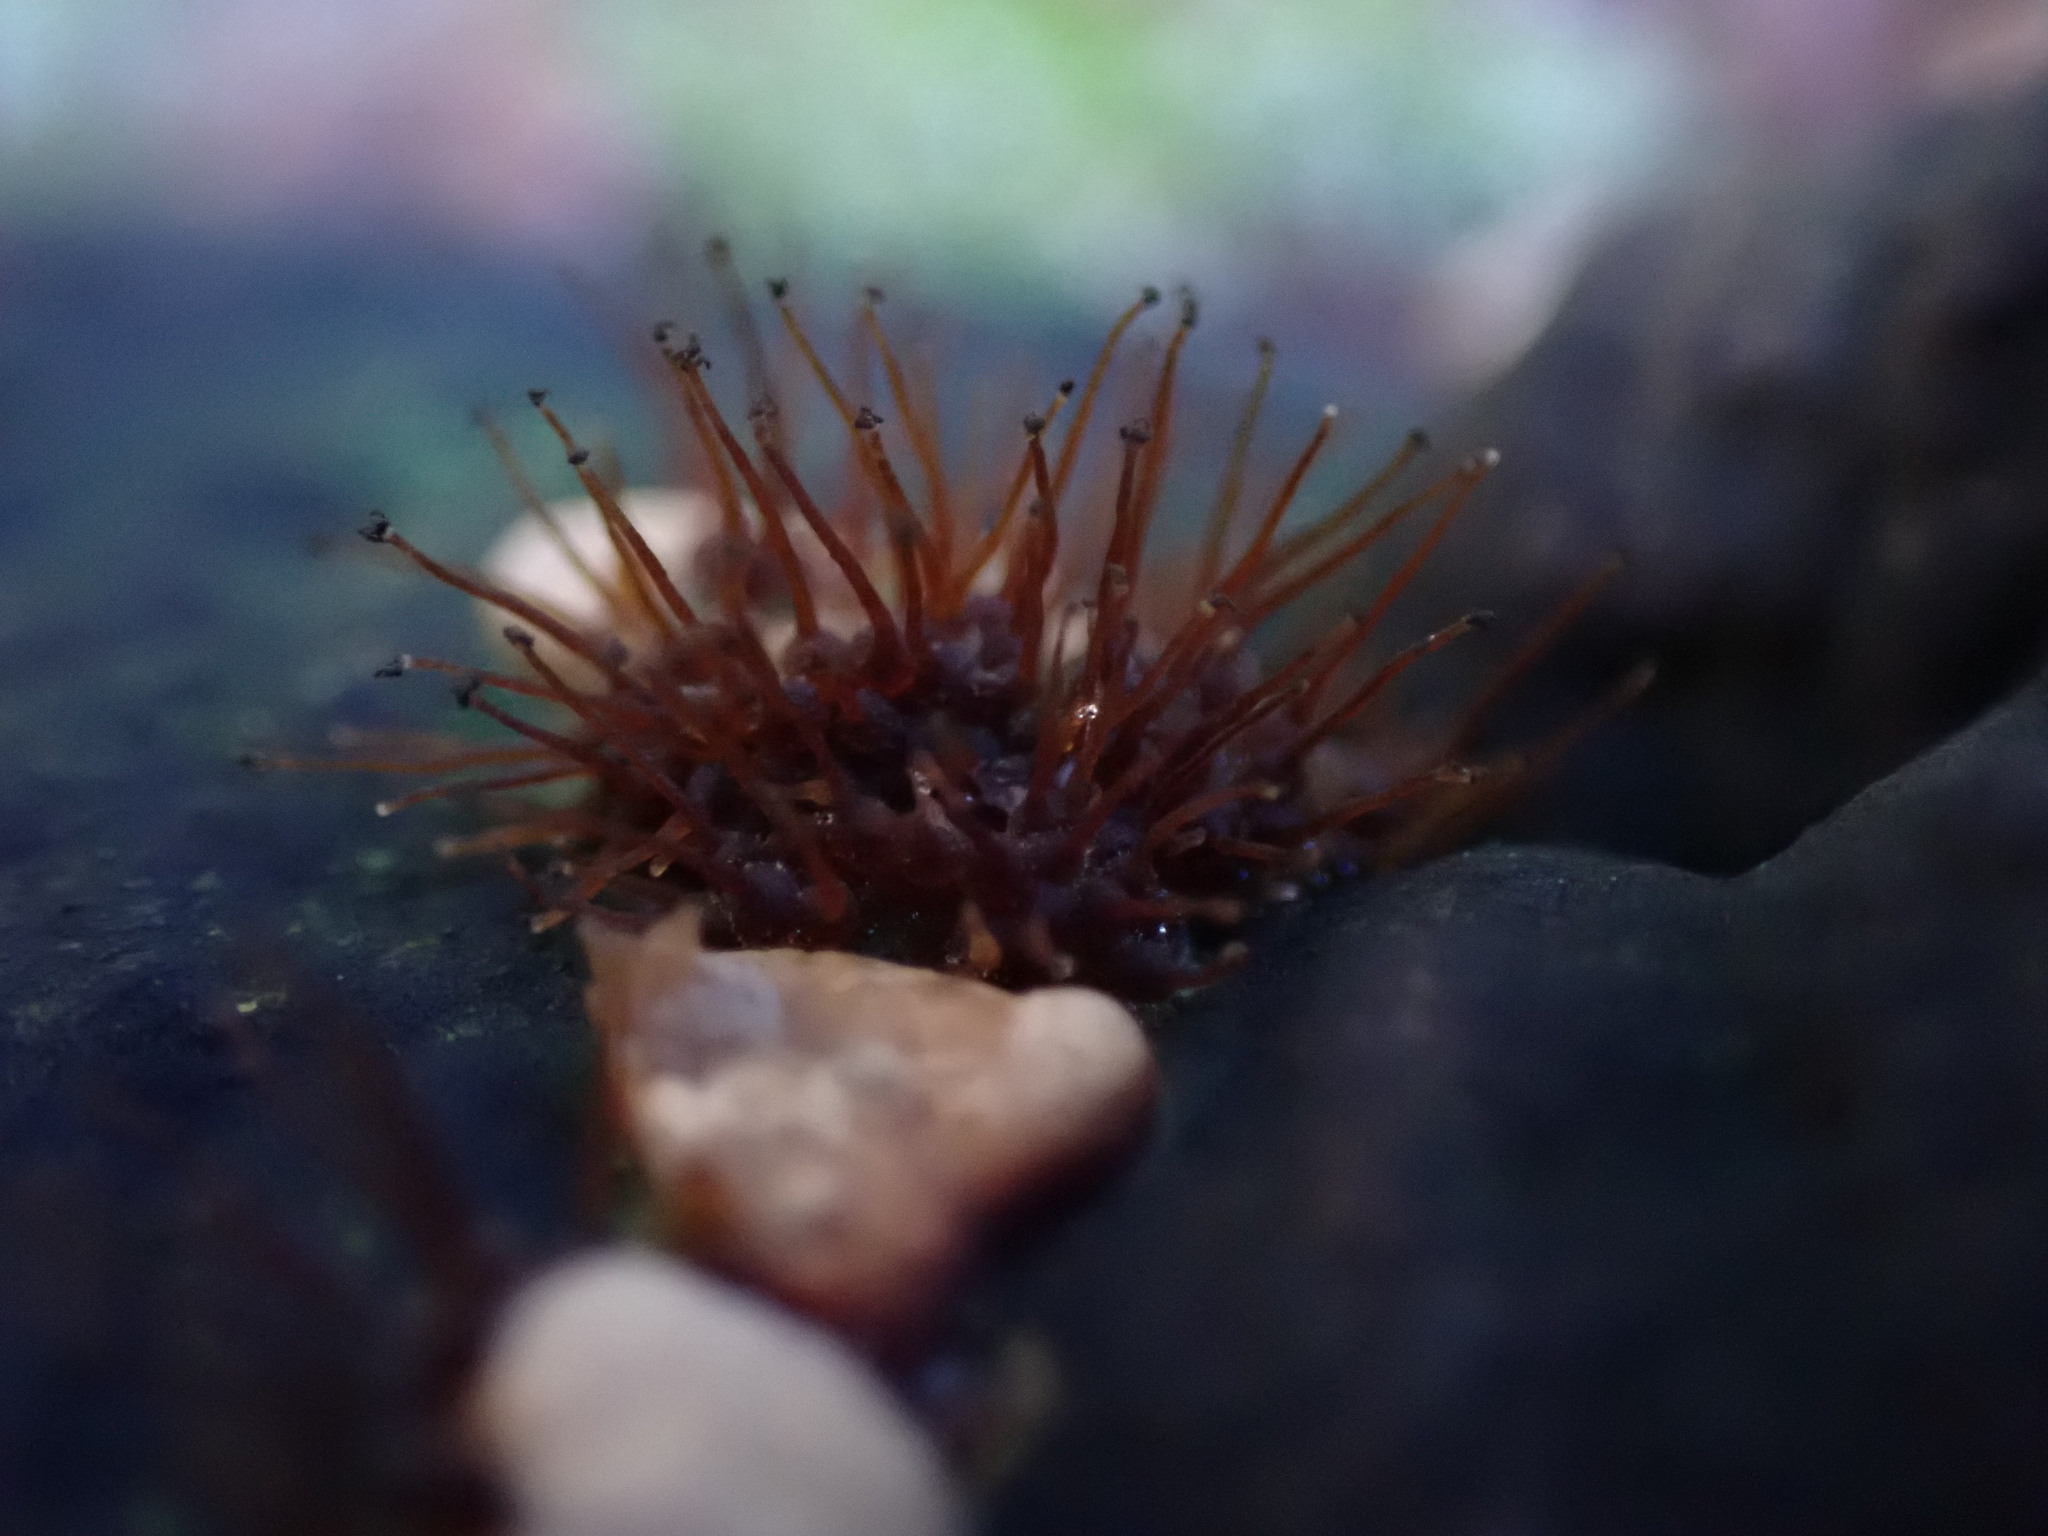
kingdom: Fungi
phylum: Ascomycota
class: Sordariomycetes
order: Melanosporales
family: Ceratostomataceae
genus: Melanospora
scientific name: Melanospora lagenaria
